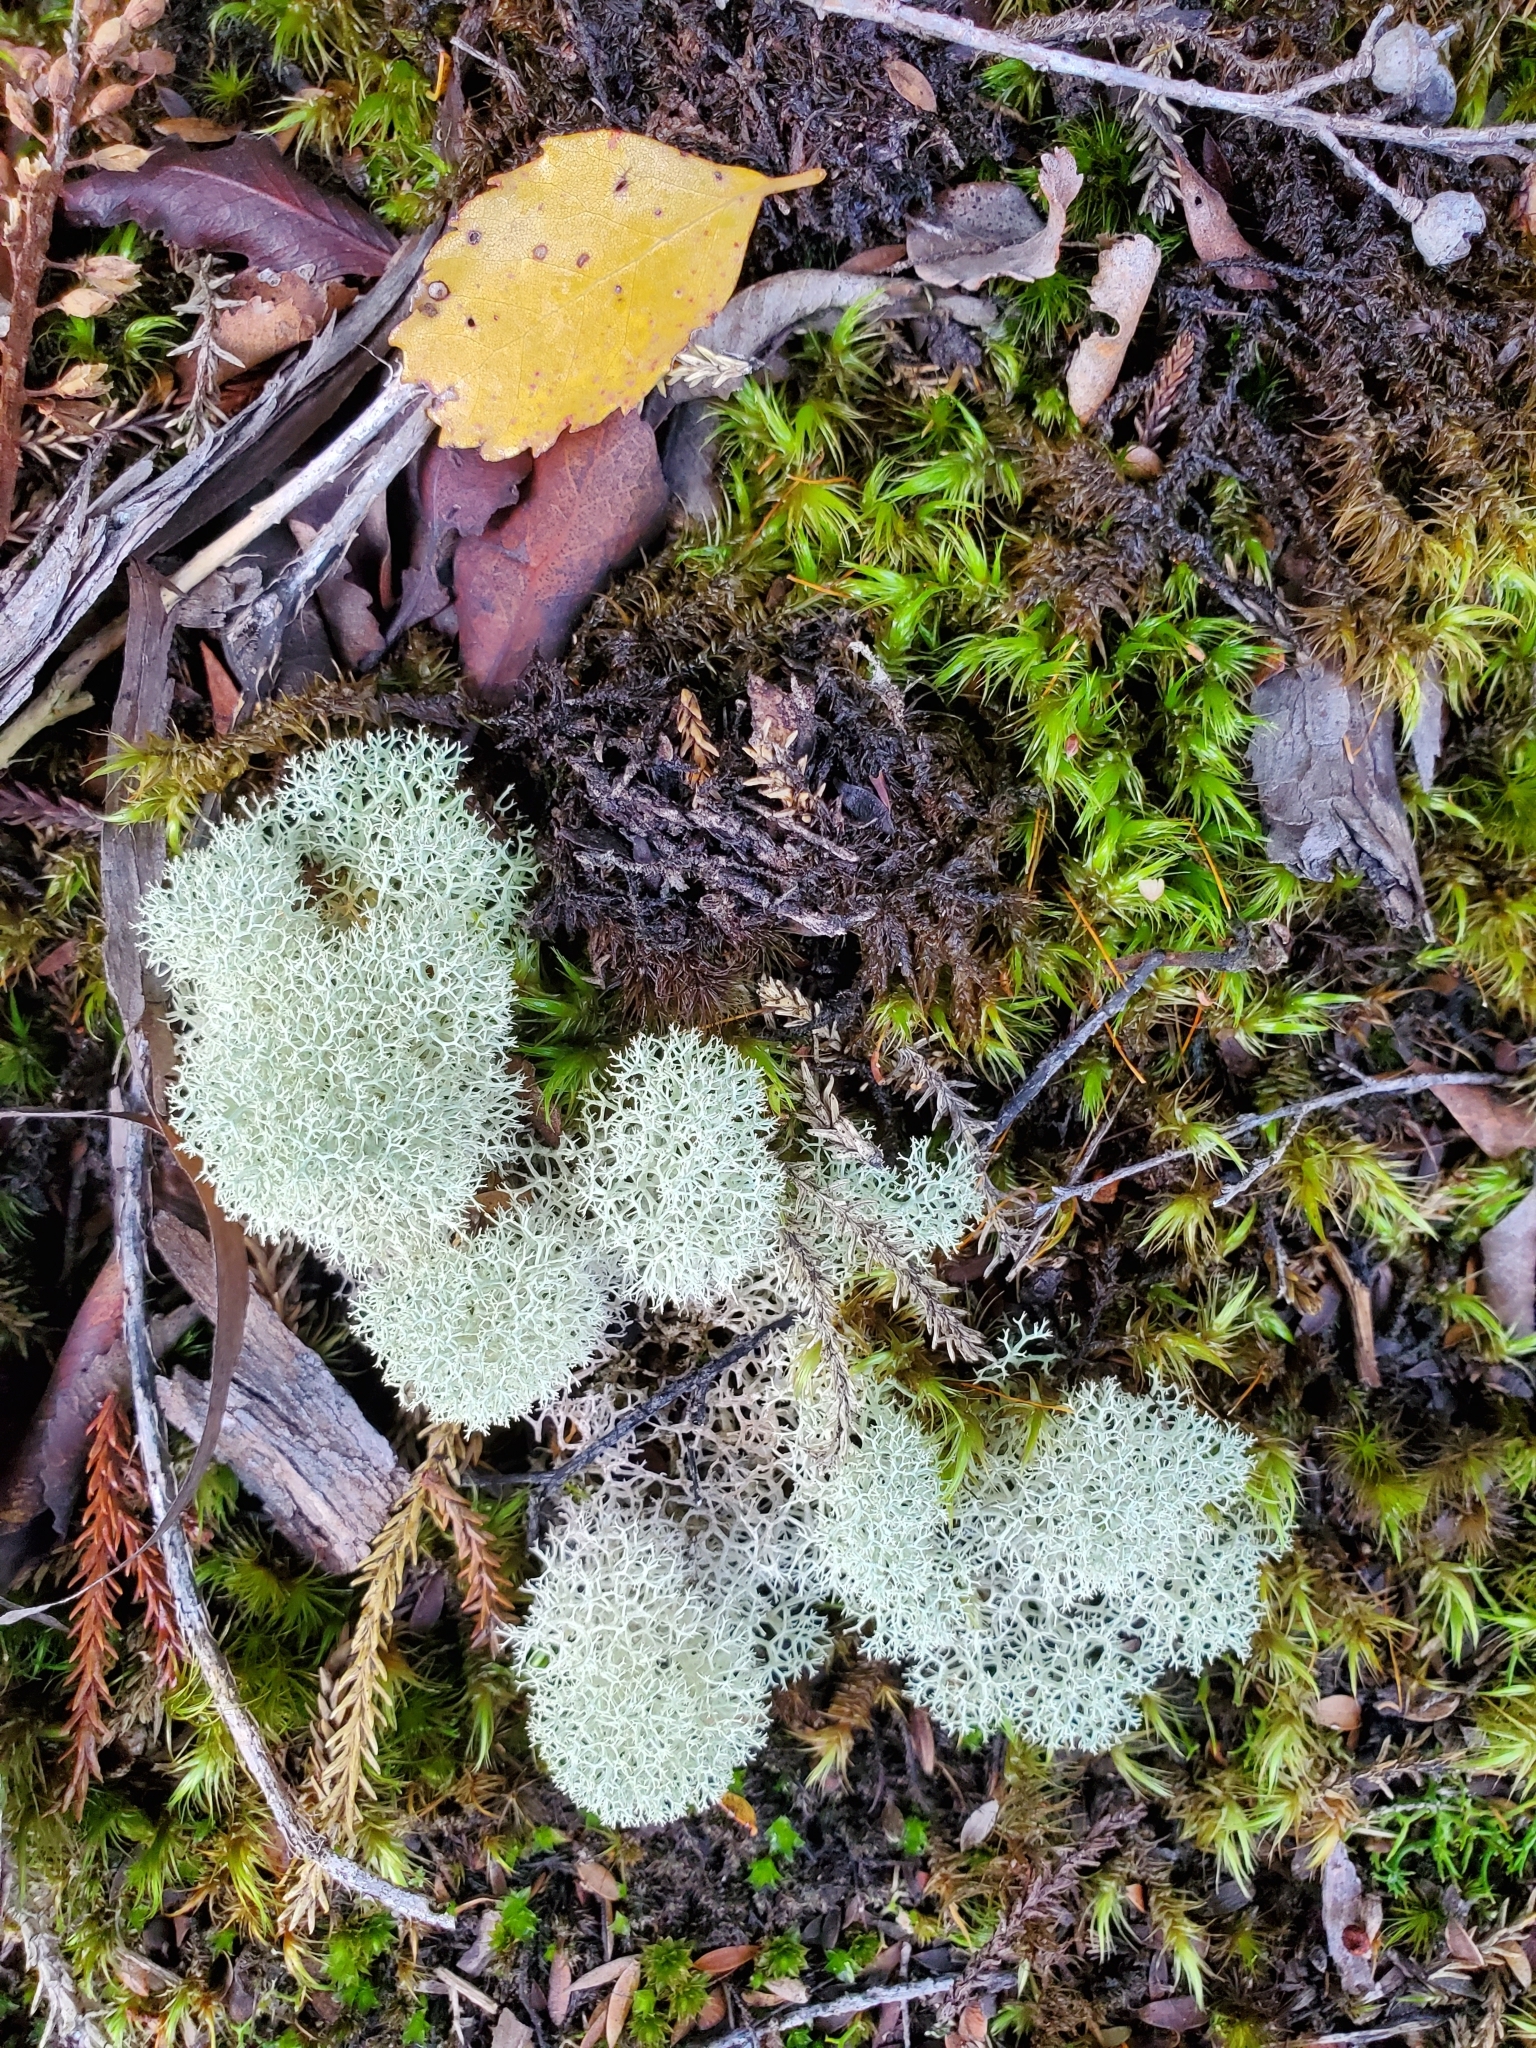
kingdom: Fungi
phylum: Ascomycota
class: Lecanoromycetes
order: Lecanorales
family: Cladoniaceae
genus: Cladonia
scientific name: Cladonia confusa
